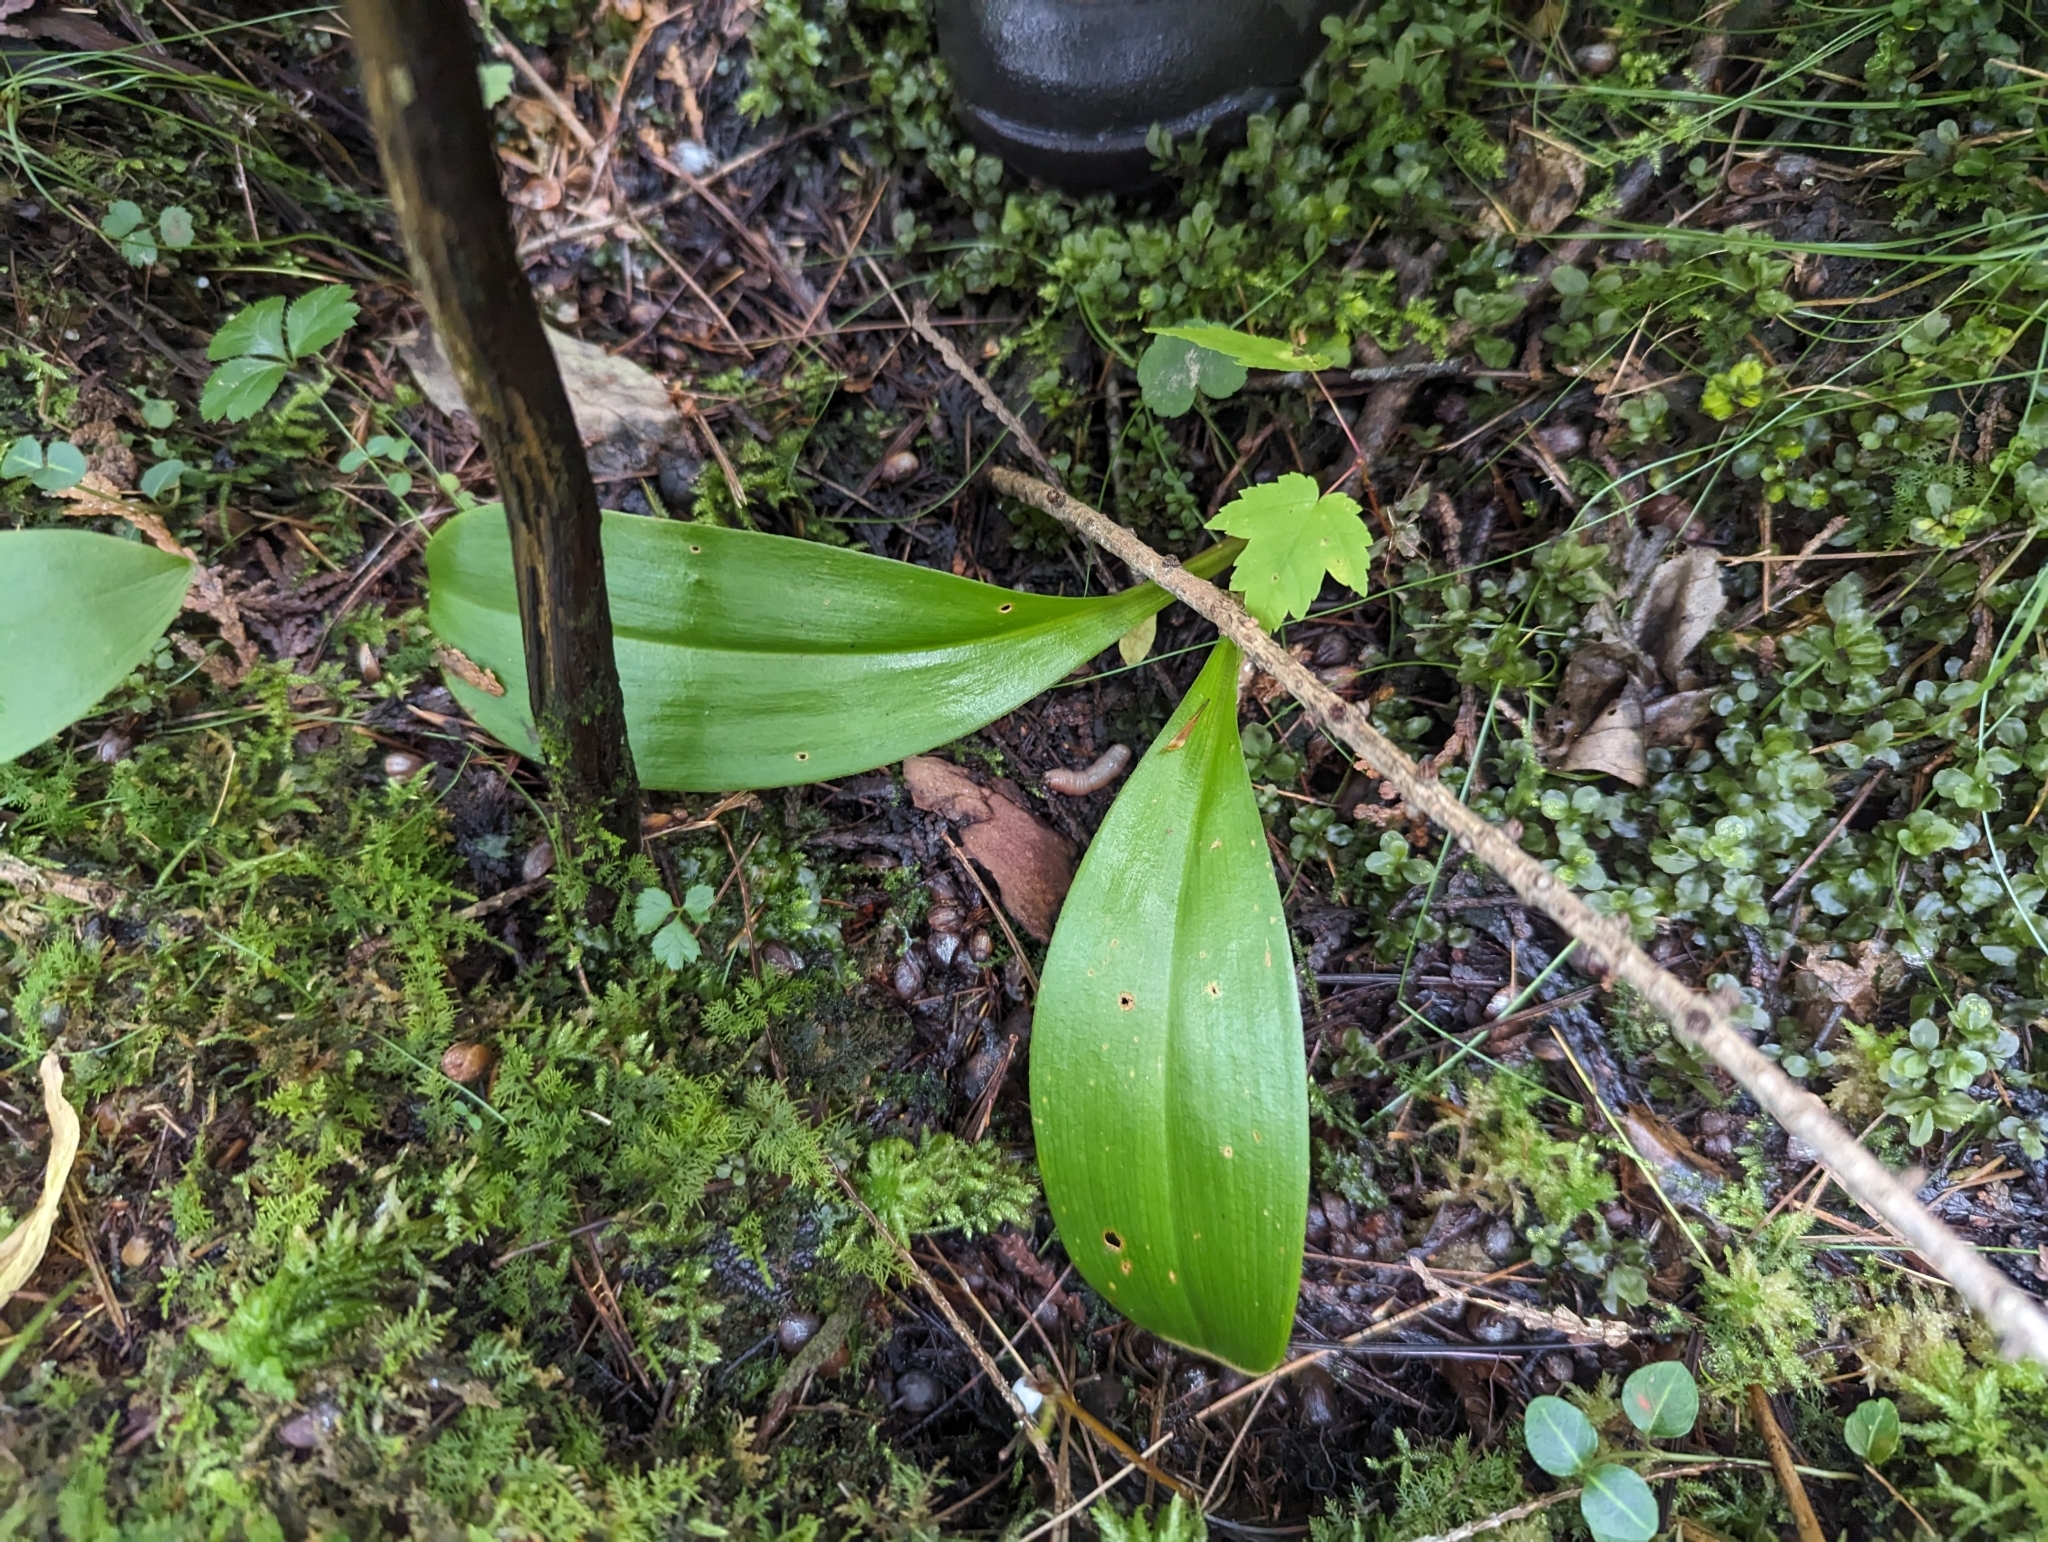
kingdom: Plantae
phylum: Tracheophyta
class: Liliopsida
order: Liliales
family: Liliaceae
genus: Clintonia
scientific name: Clintonia borealis
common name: Yellow clintonia
